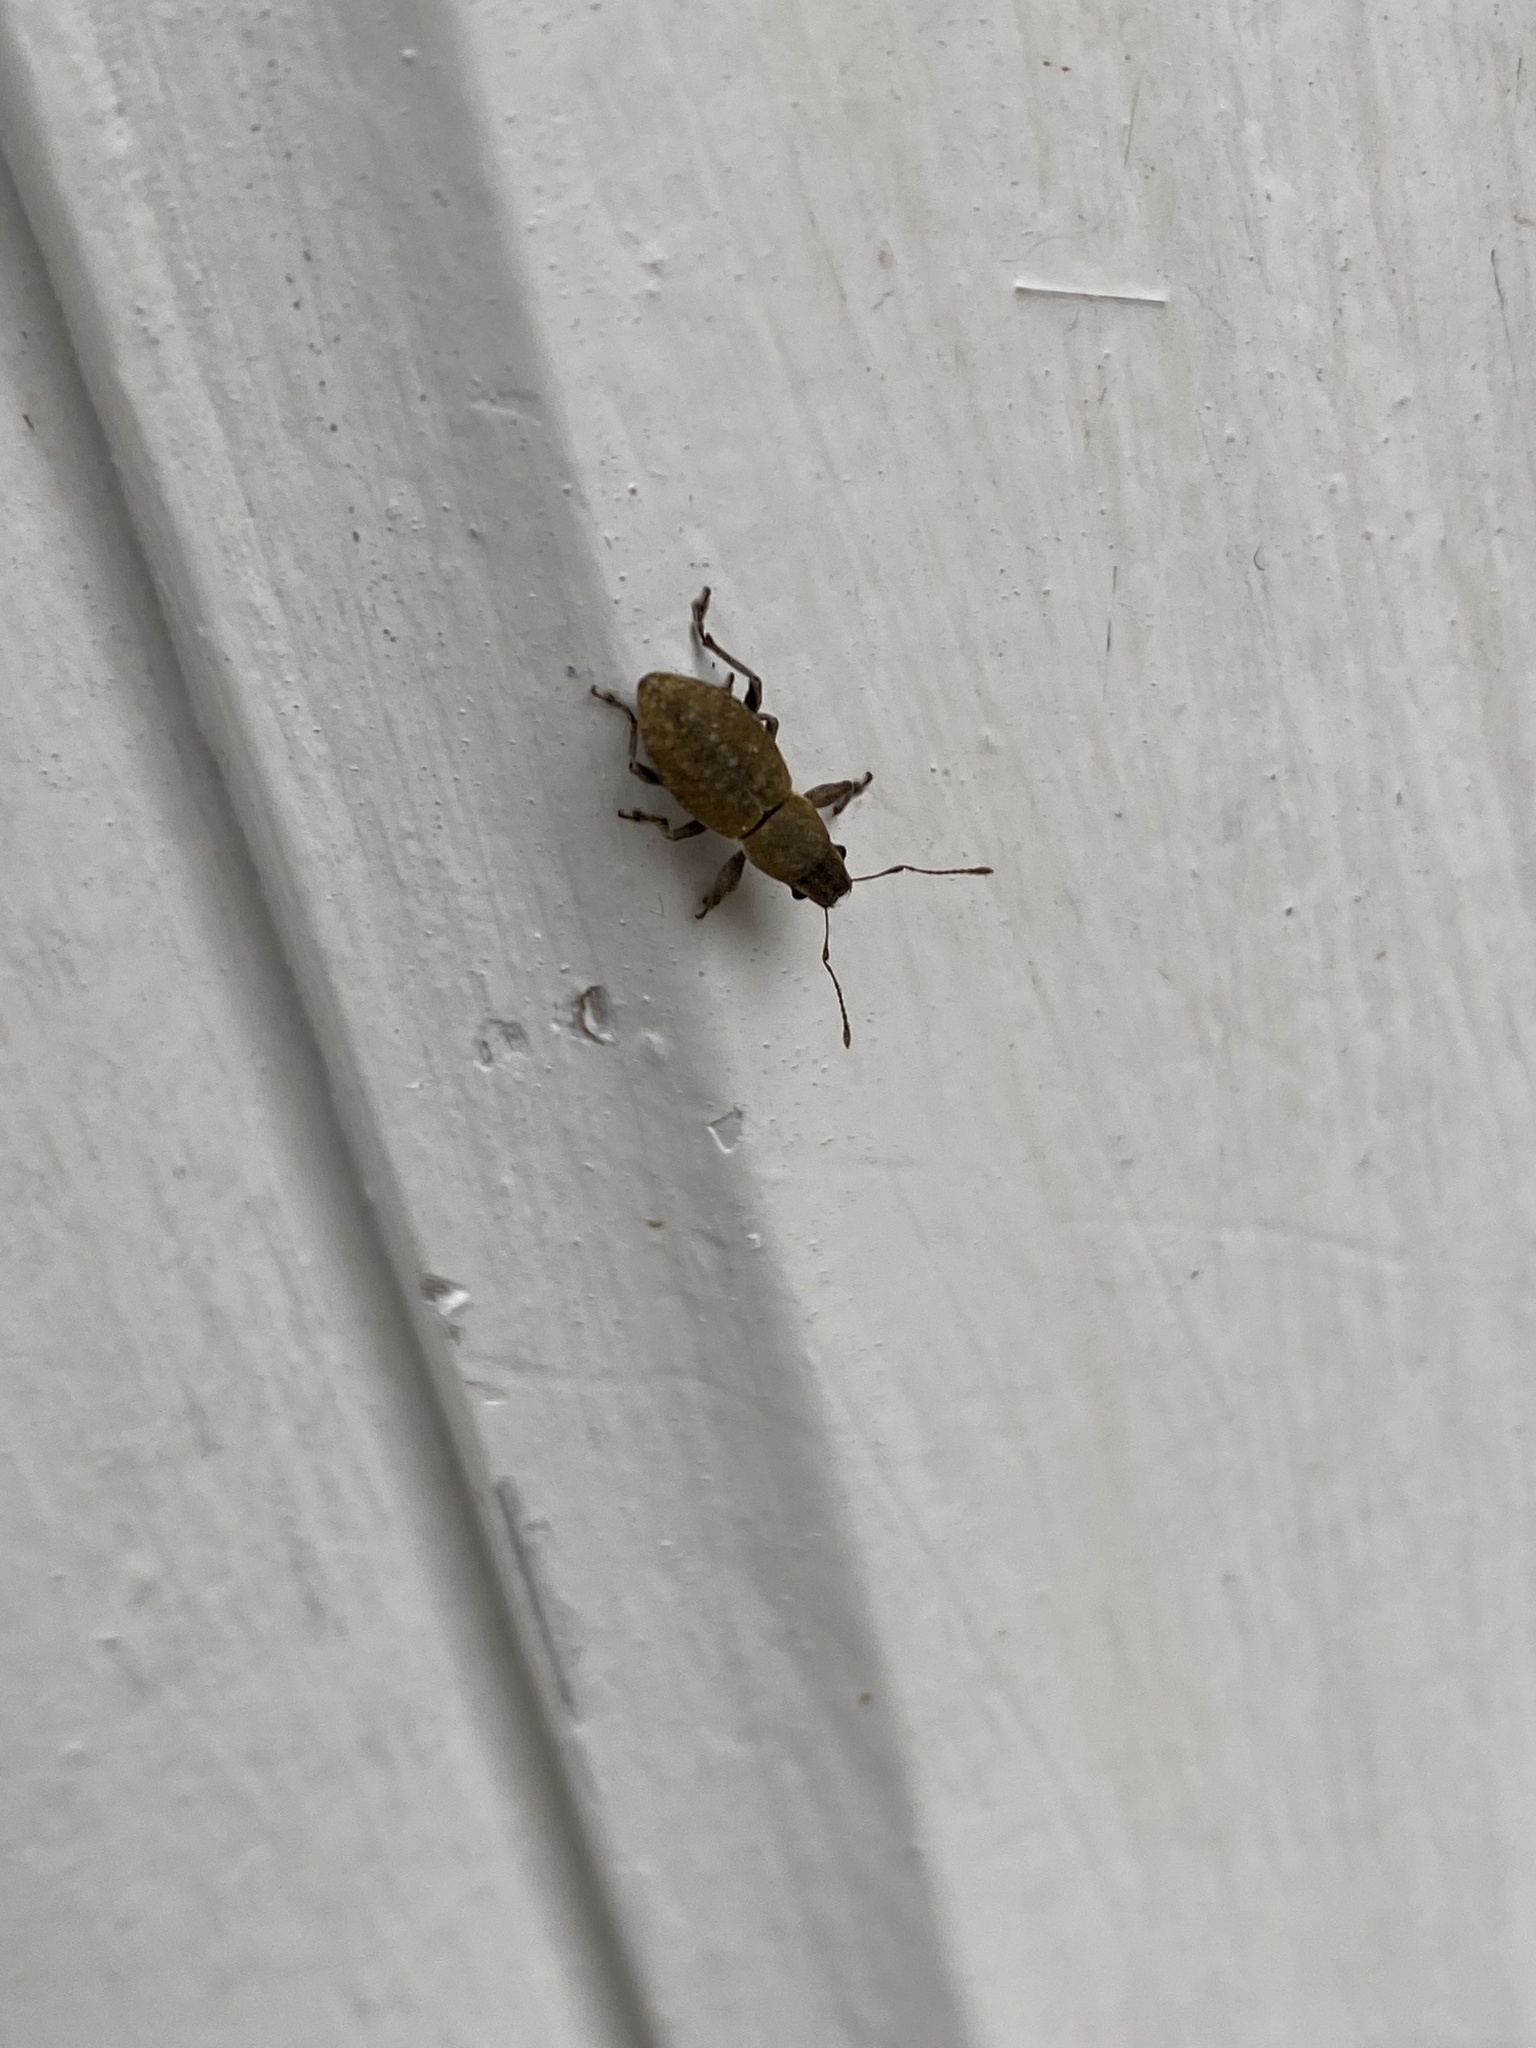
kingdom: Animalia
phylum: Arthropoda
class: Insecta
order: Coleoptera
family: Curculionidae
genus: Naupactus
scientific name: Naupactus cervinus
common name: Fuller rose beetle
